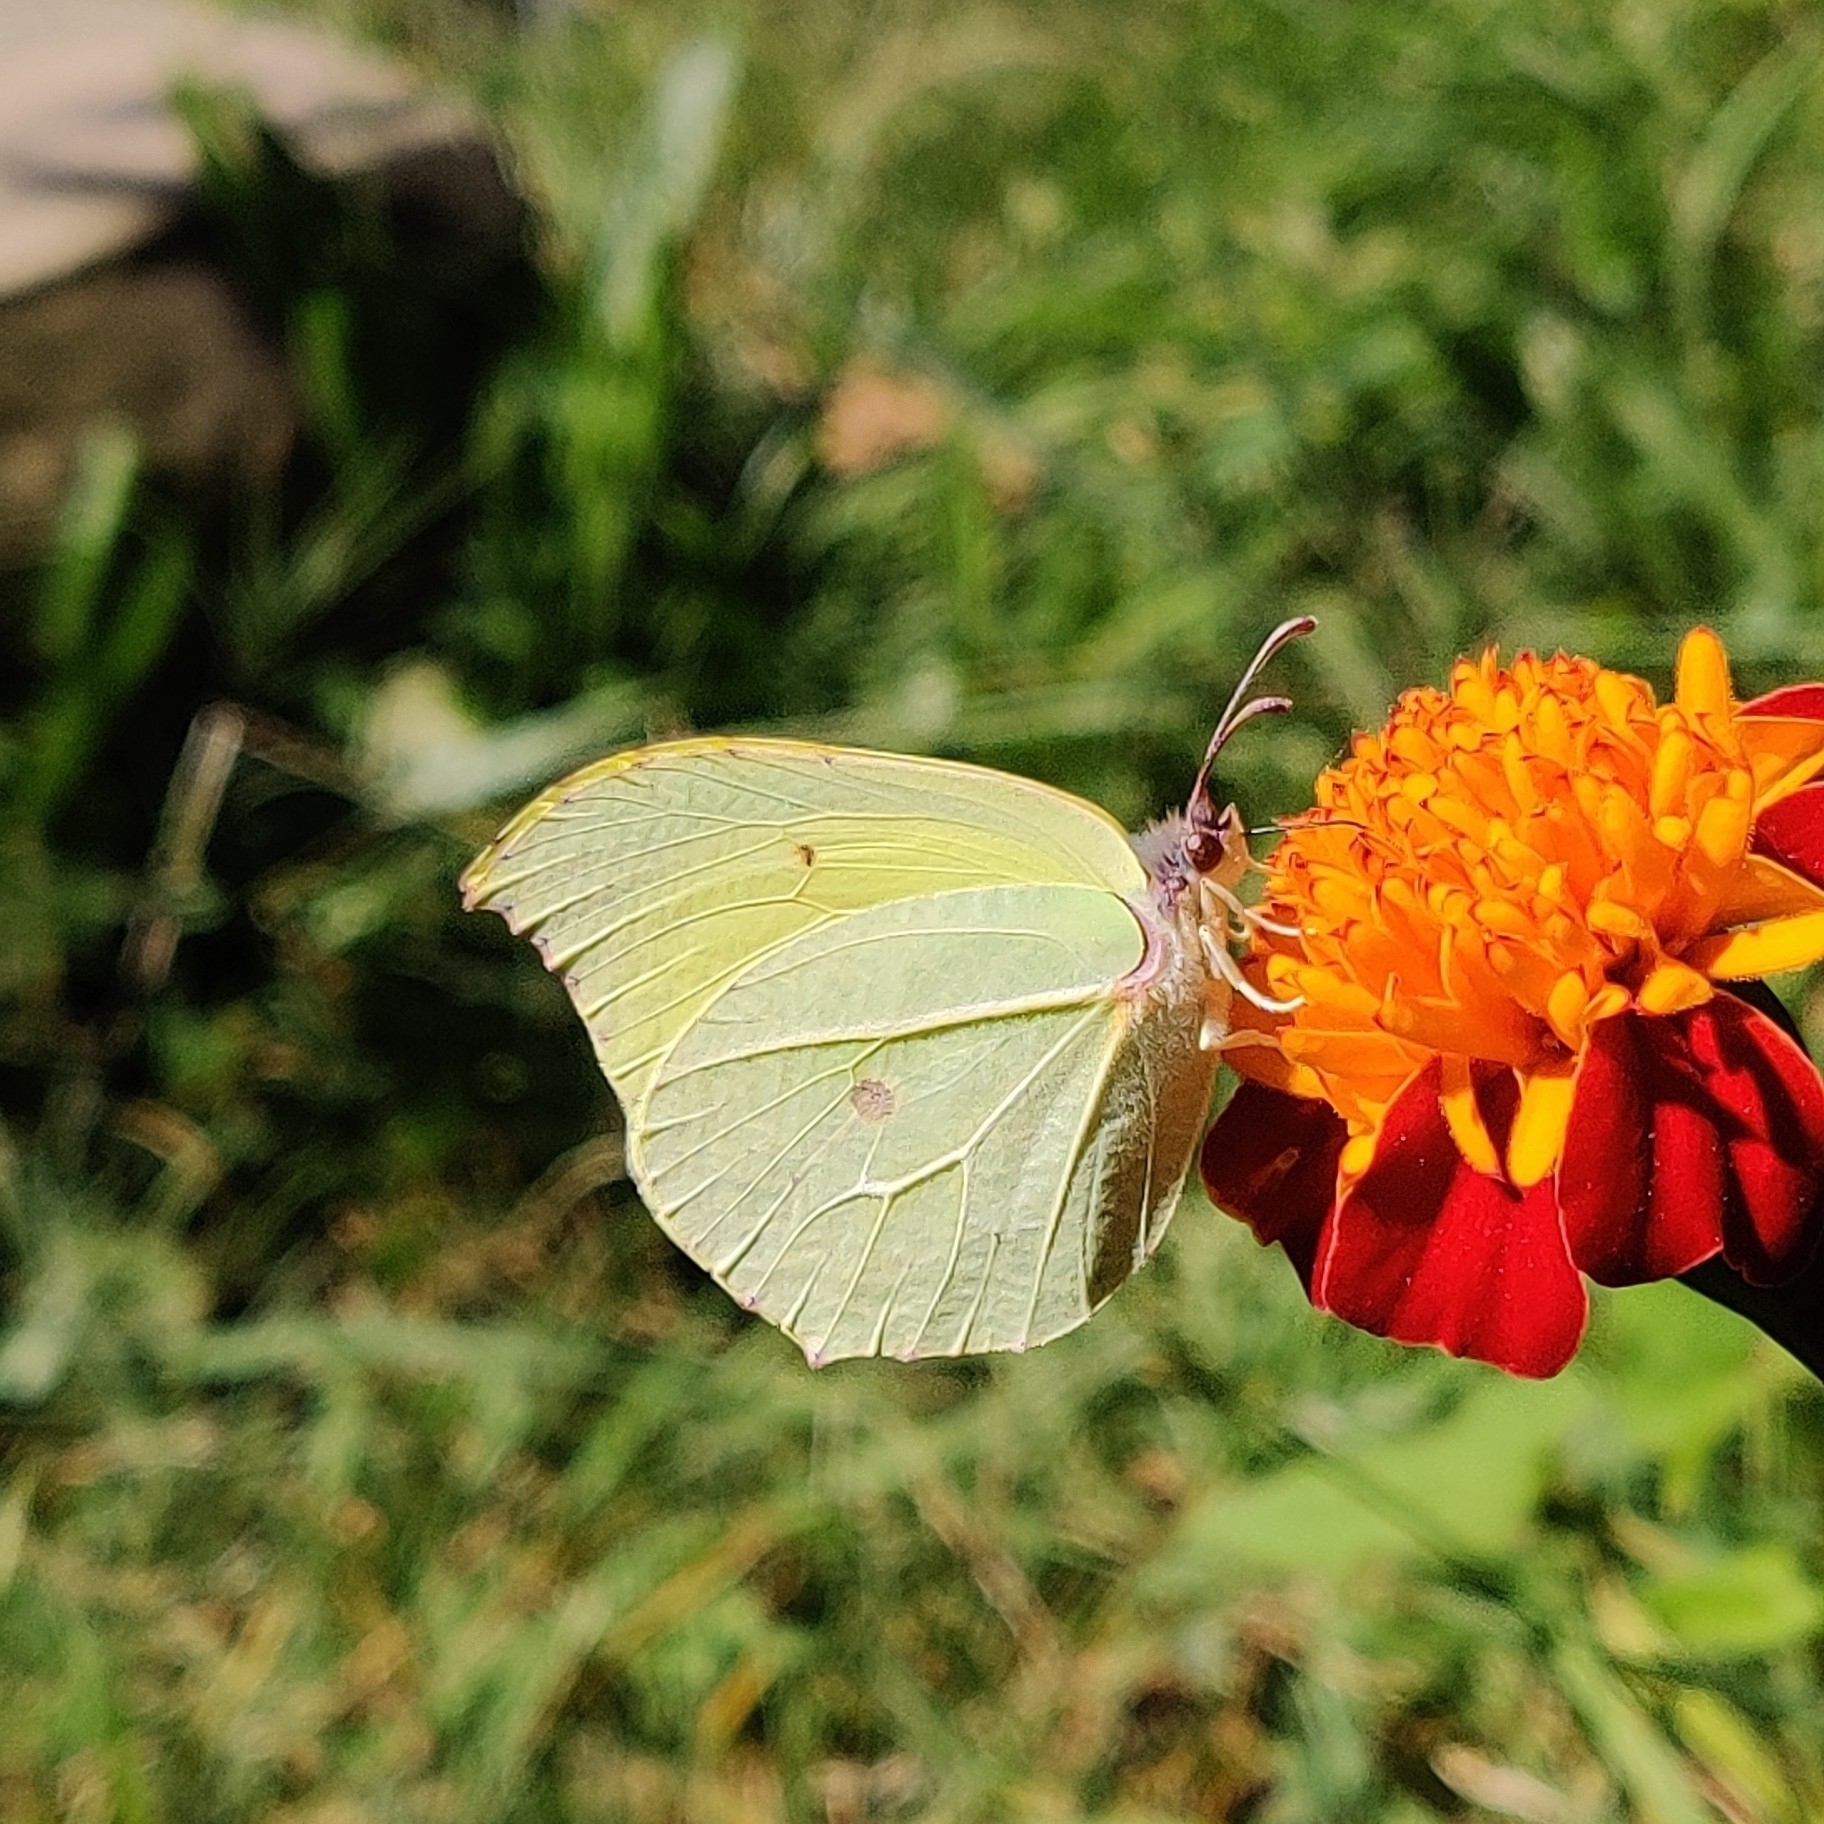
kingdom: Animalia
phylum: Arthropoda
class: Insecta
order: Lepidoptera
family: Pieridae
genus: Gonepteryx
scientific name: Gonepteryx
